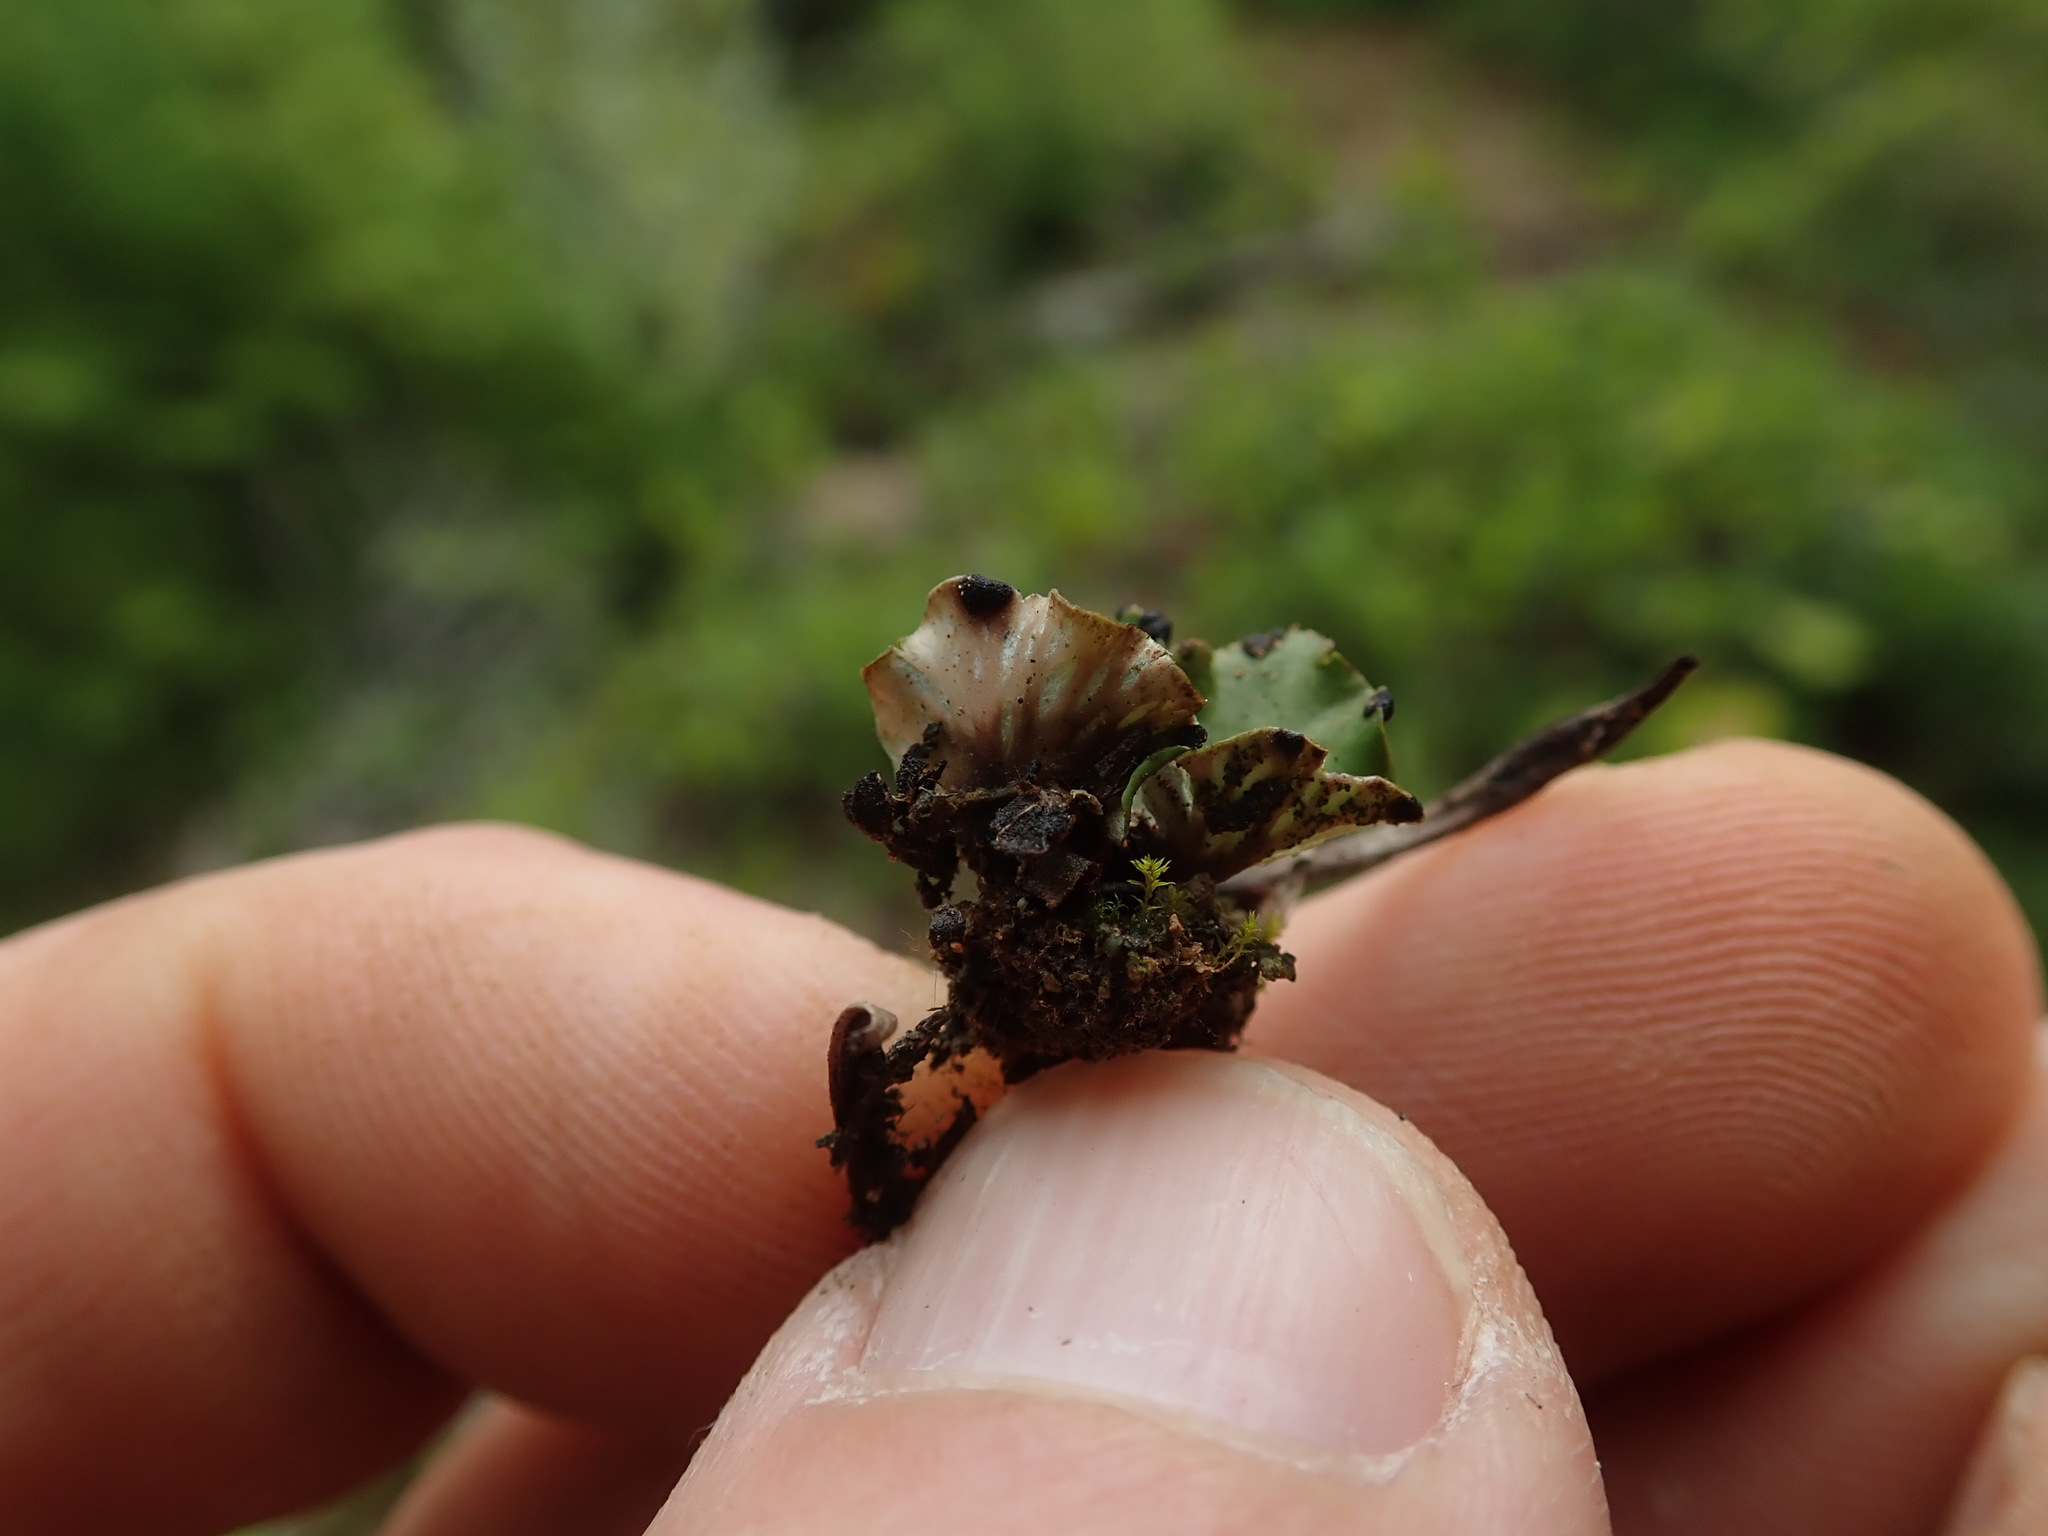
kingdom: Fungi
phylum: Ascomycota
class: Lecanoromycetes
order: Peltigerales
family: Peltigeraceae
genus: Peltigera
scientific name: Peltigera venosa
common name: Pixie gowns lichen
